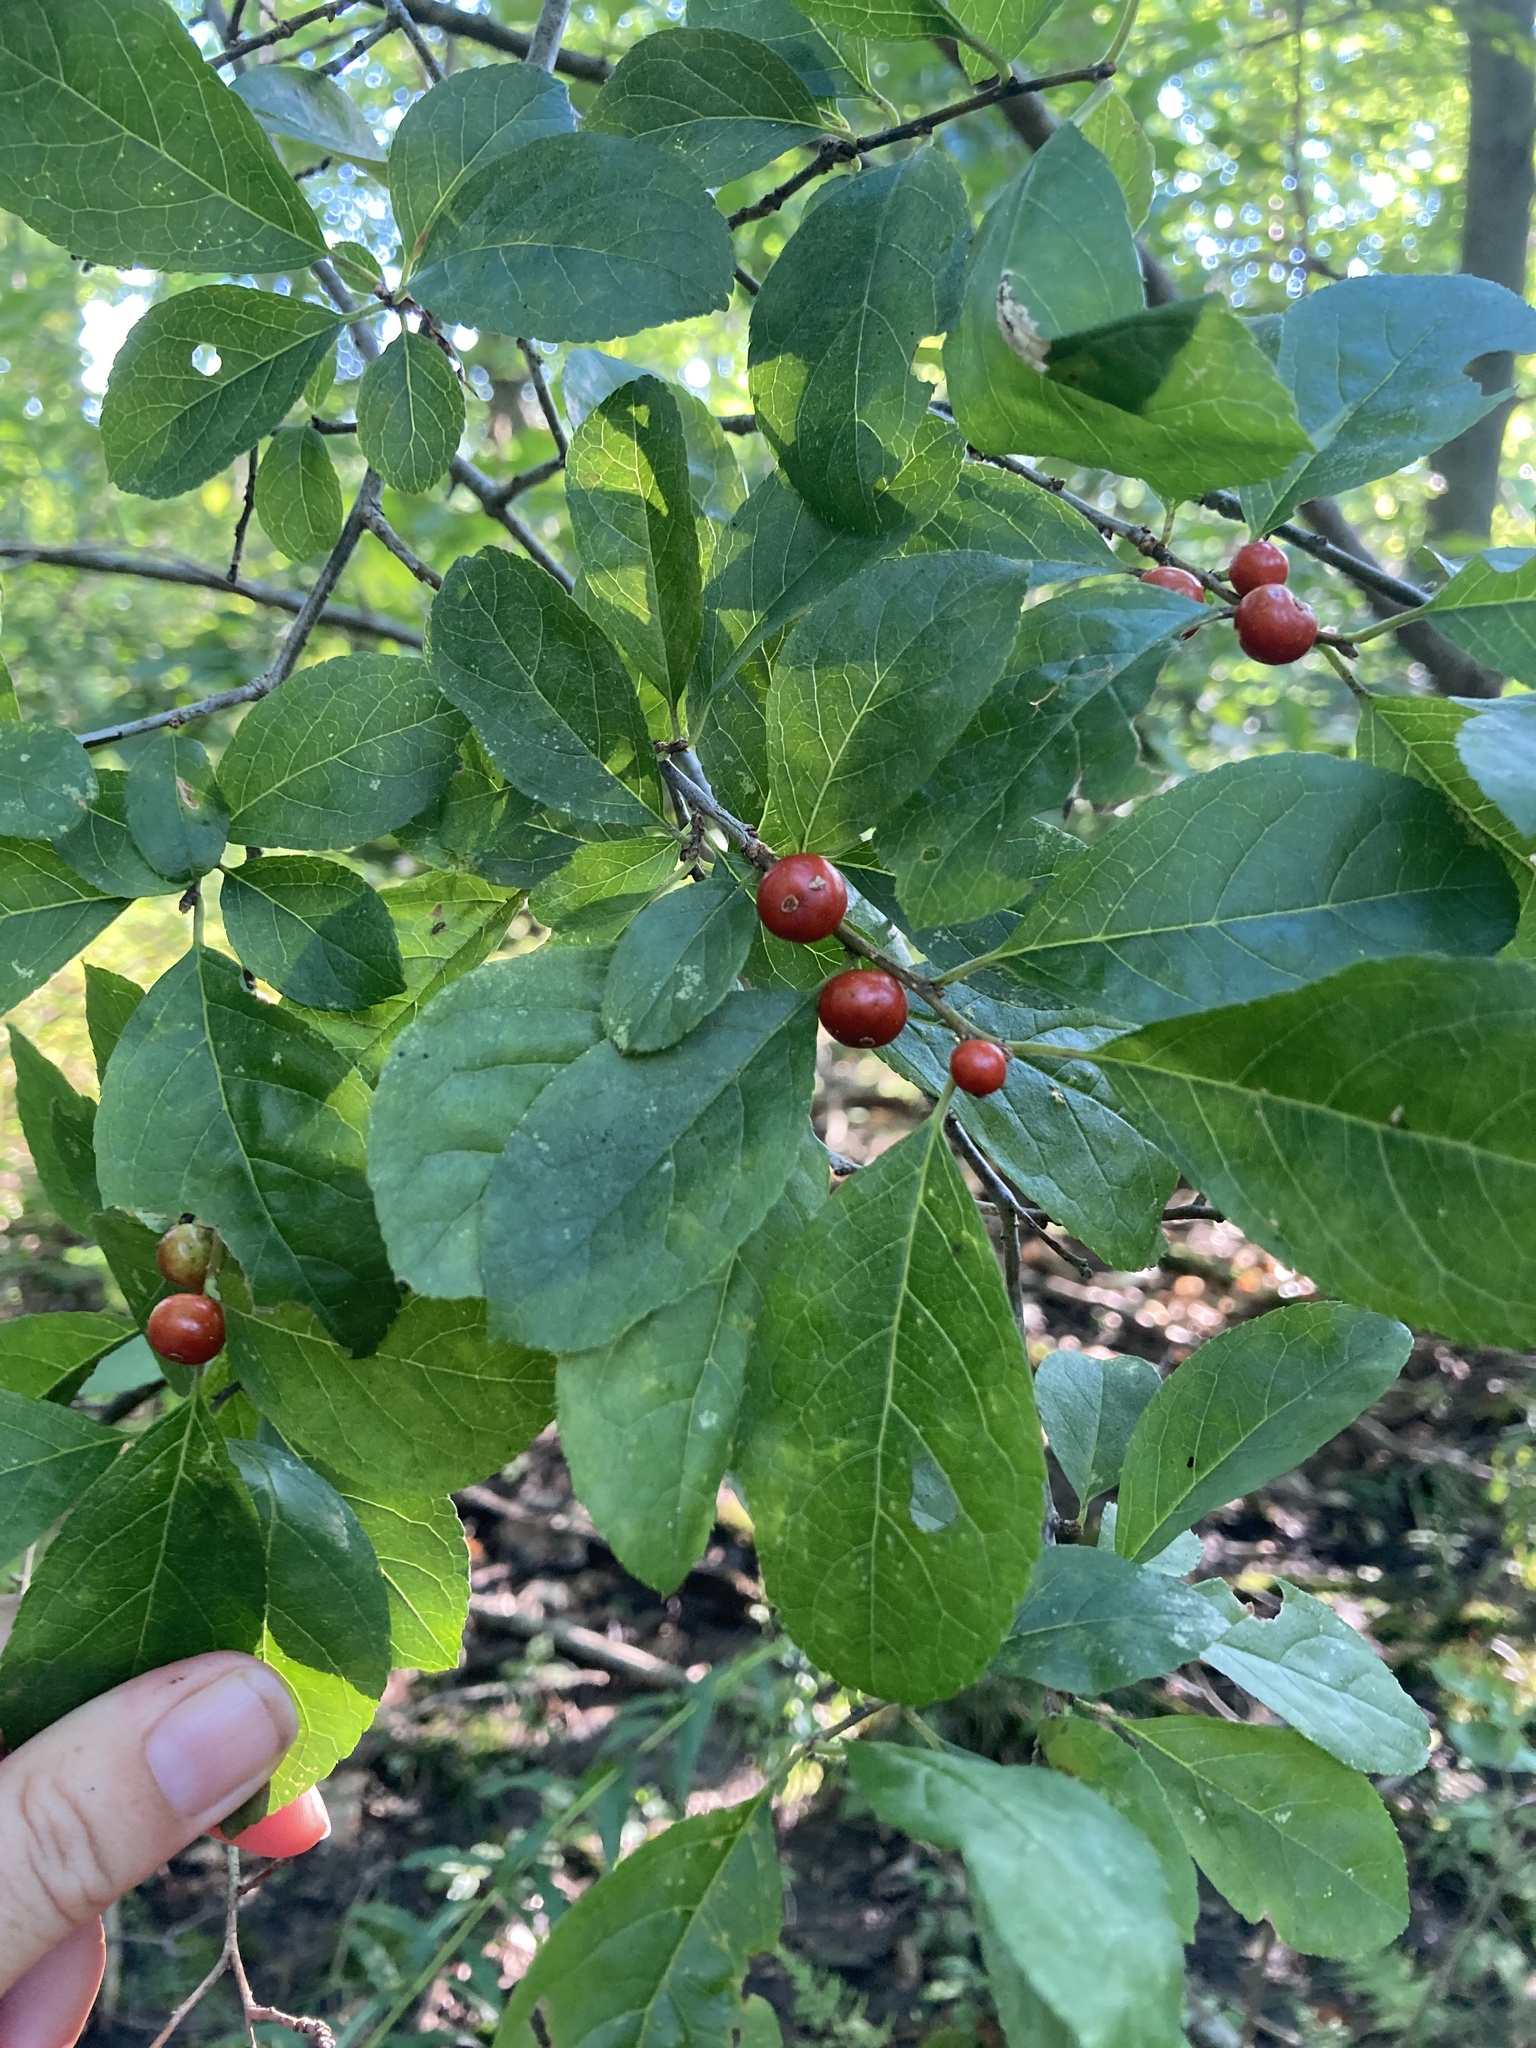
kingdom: Plantae
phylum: Tracheophyta
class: Magnoliopsida
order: Aquifoliales
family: Aquifoliaceae
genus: Ilex
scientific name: Ilex verticillata
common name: Virginia winterberry
